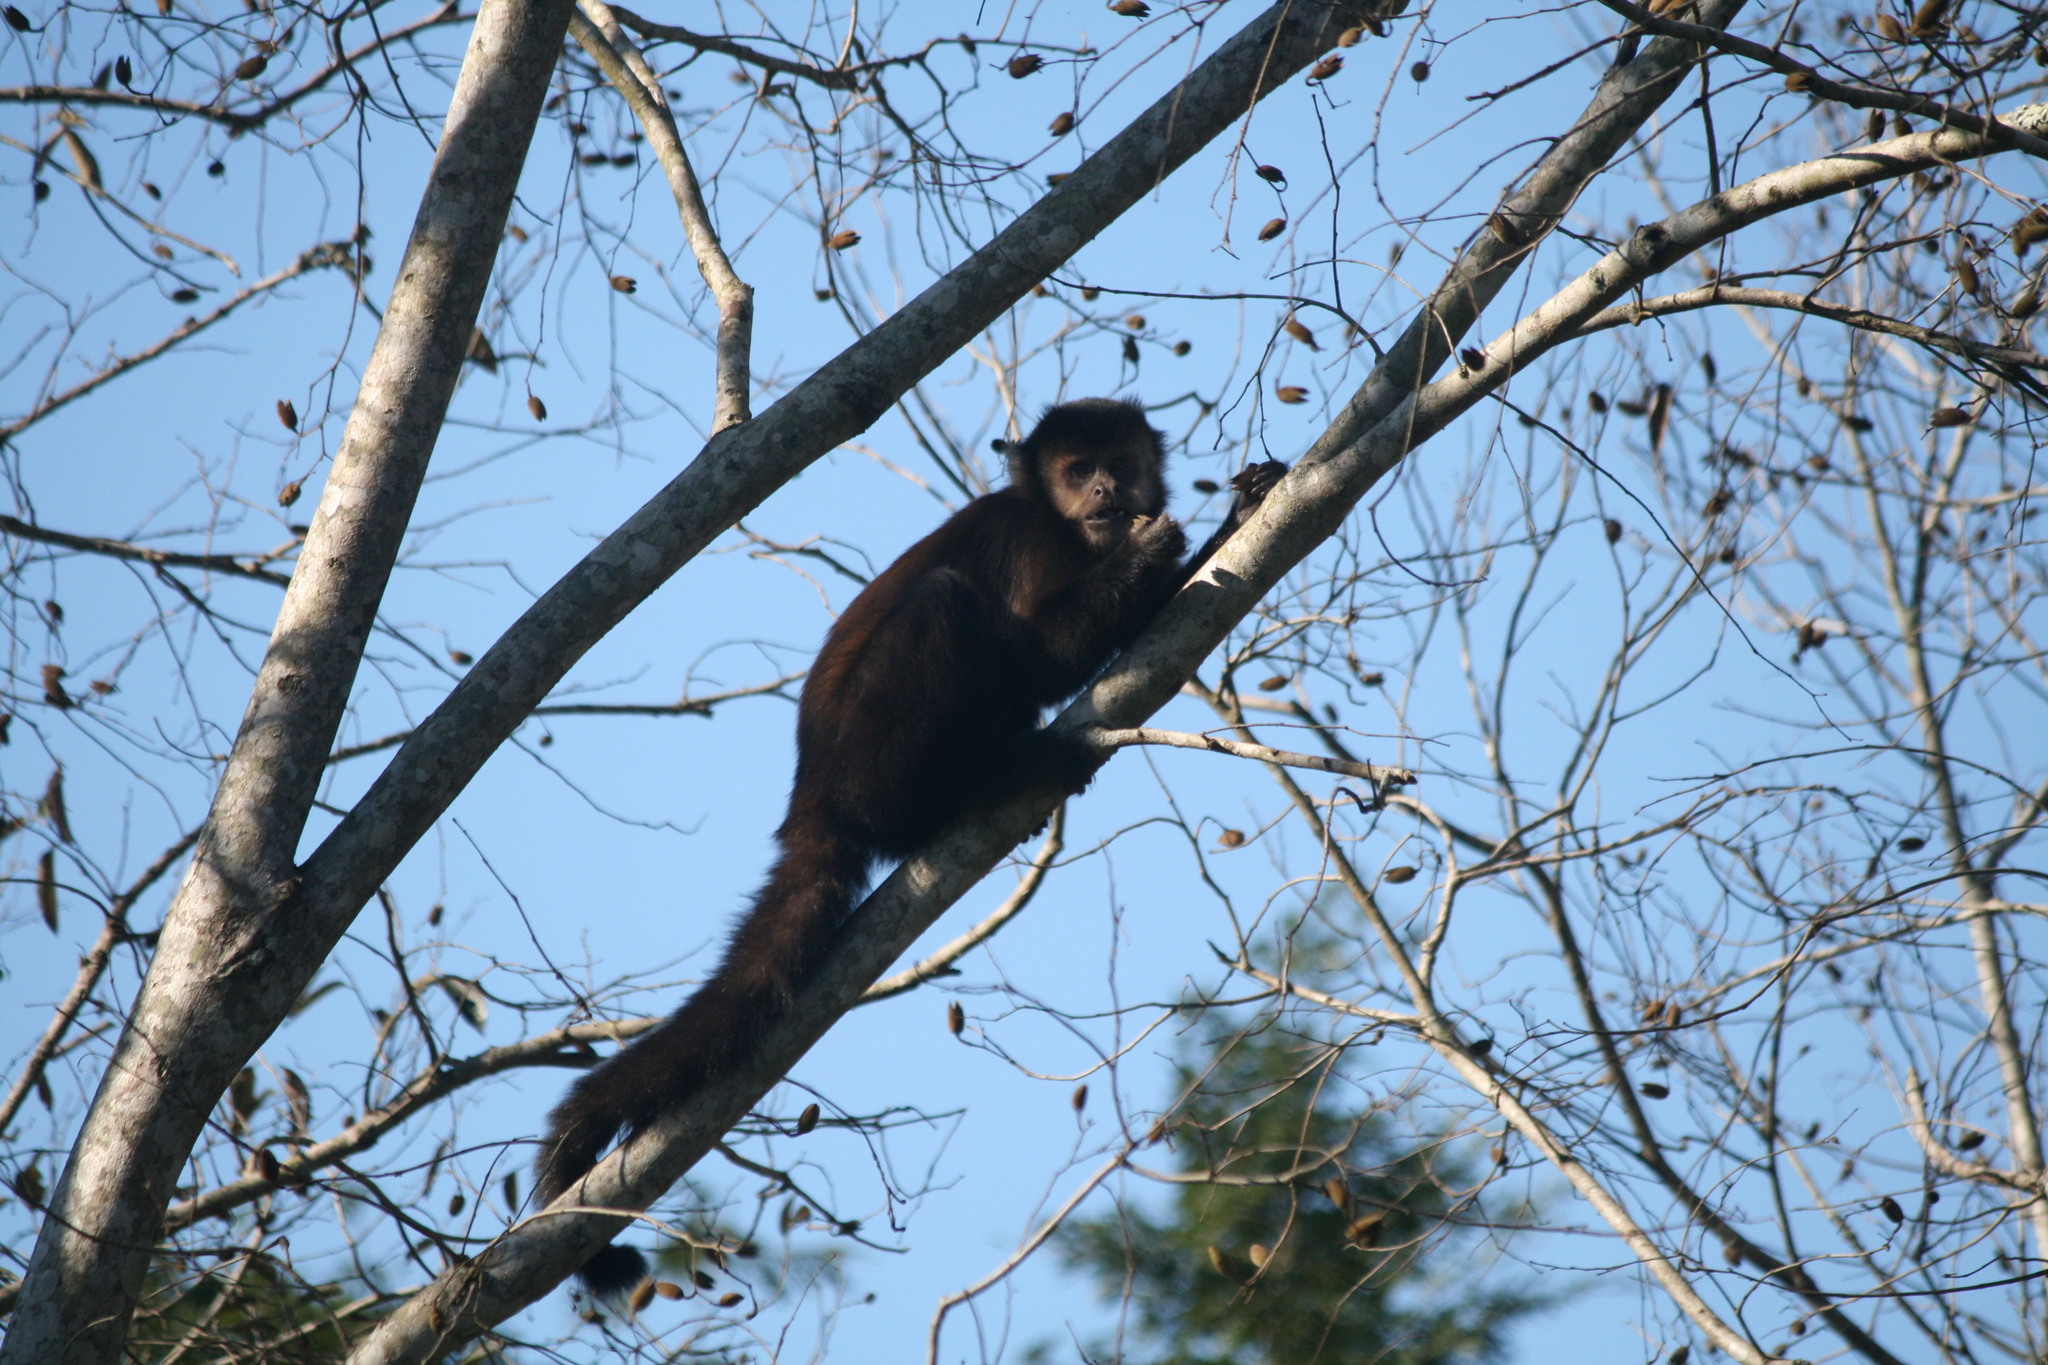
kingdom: Animalia
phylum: Chordata
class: Mammalia
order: Primates
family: Cebidae
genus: Sapajus
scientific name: Sapajus nigritus
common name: Black capuchin
